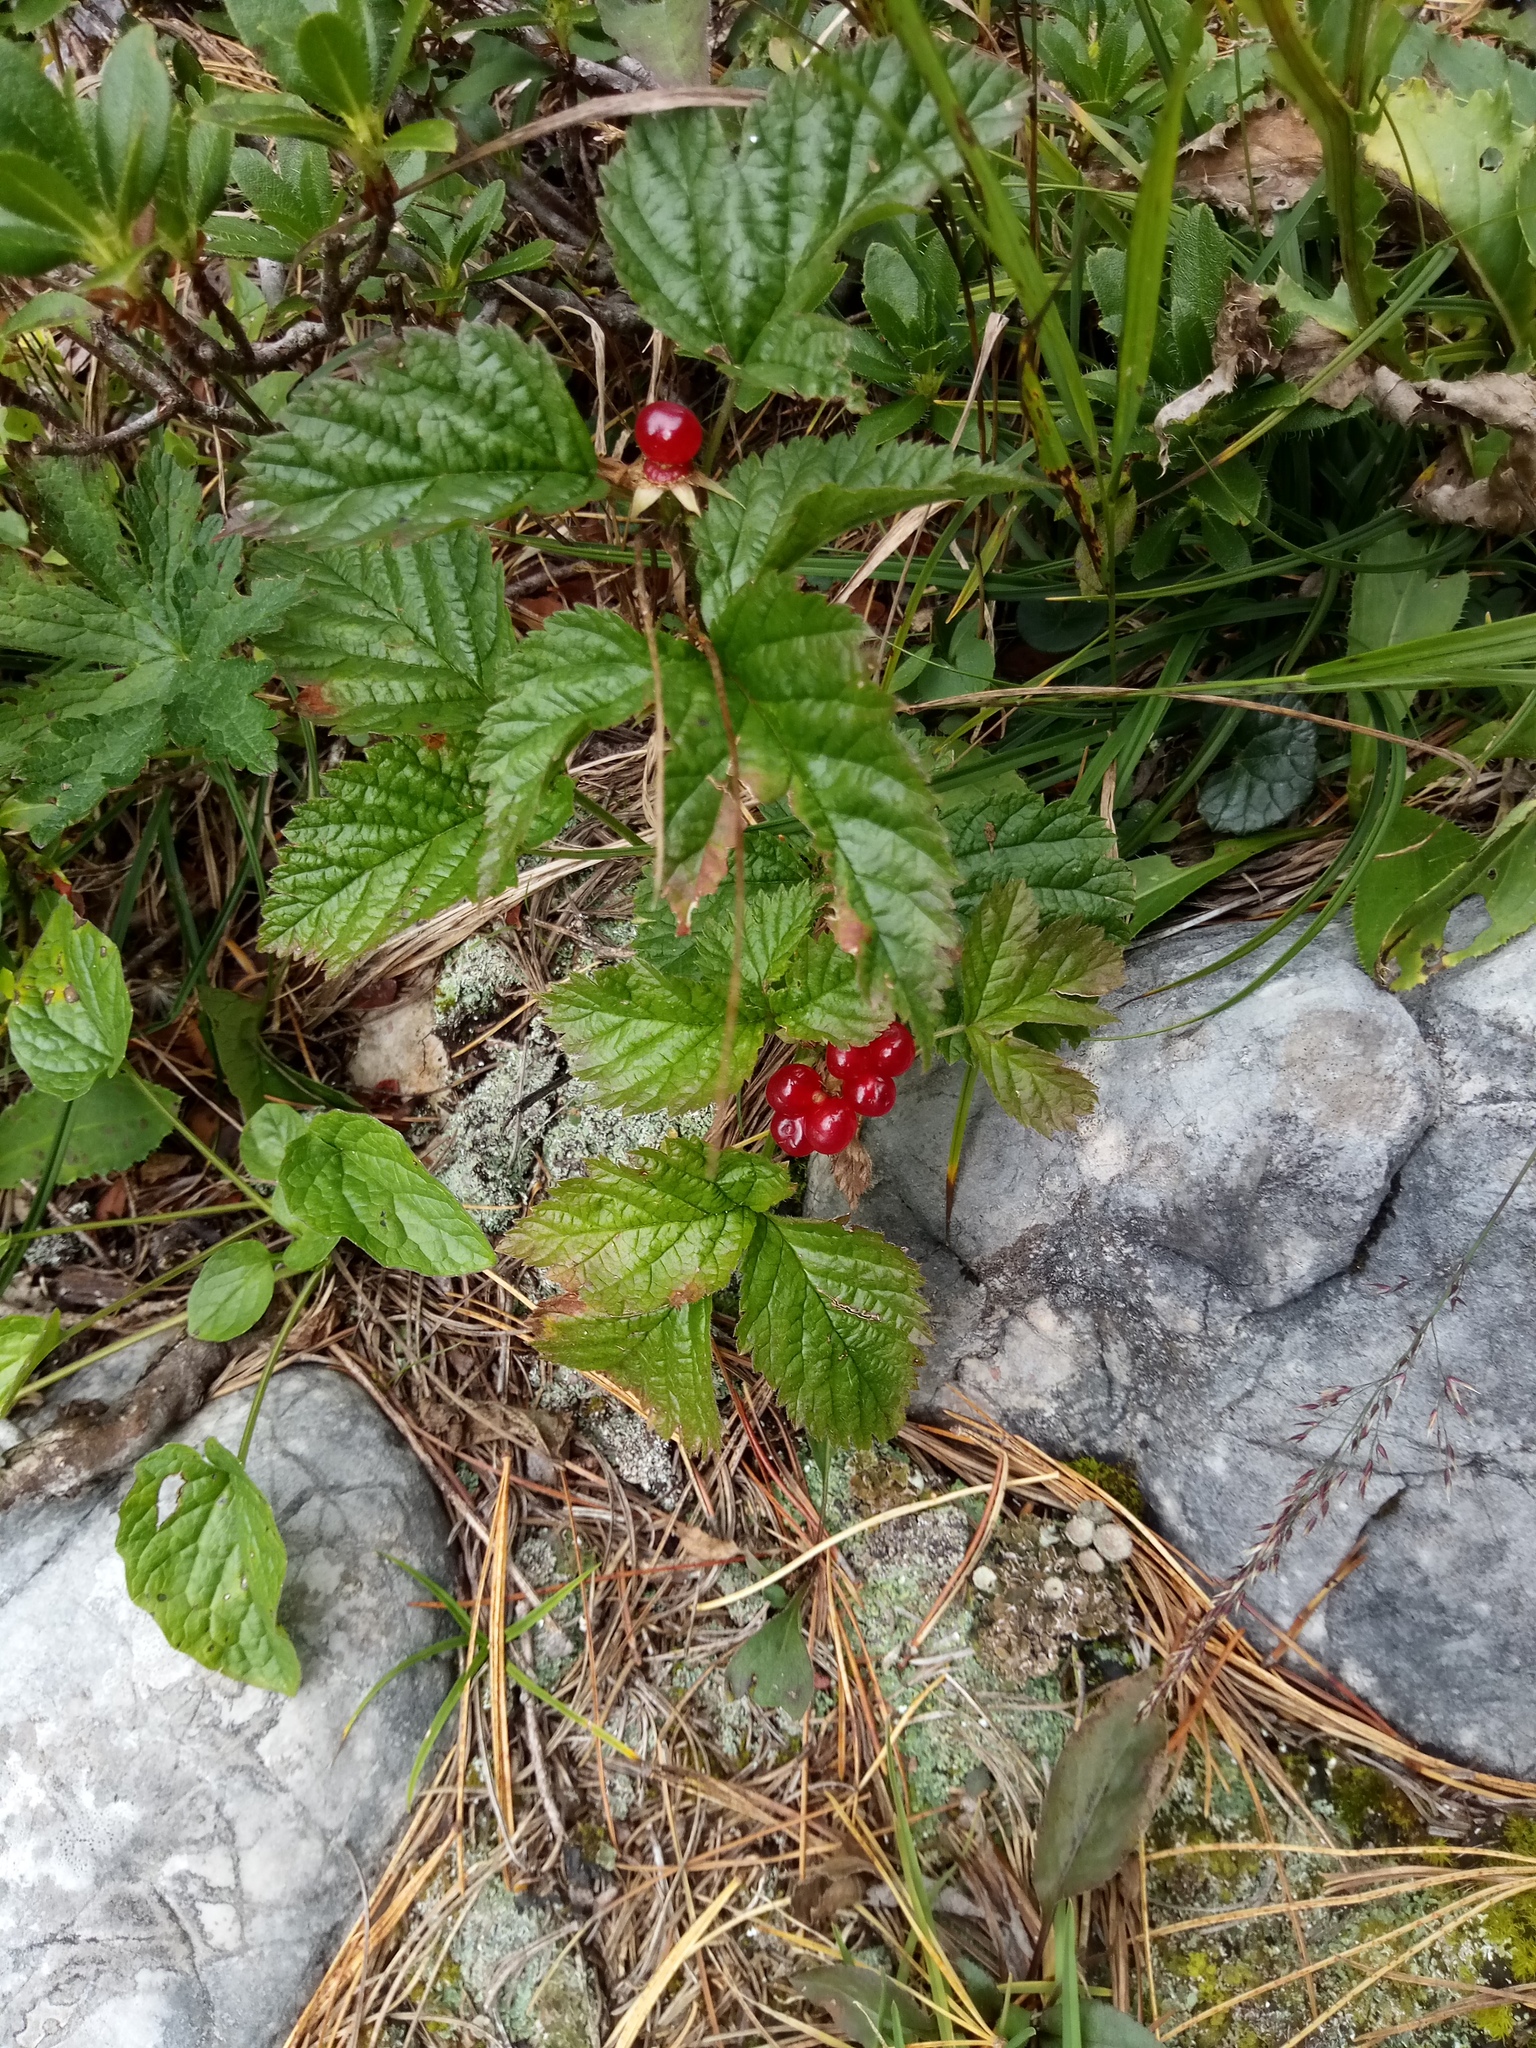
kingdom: Plantae
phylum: Tracheophyta
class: Magnoliopsida
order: Rosales
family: Rosaceae
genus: Rubus
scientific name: Rubus saxatilis
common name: Stone bramble
